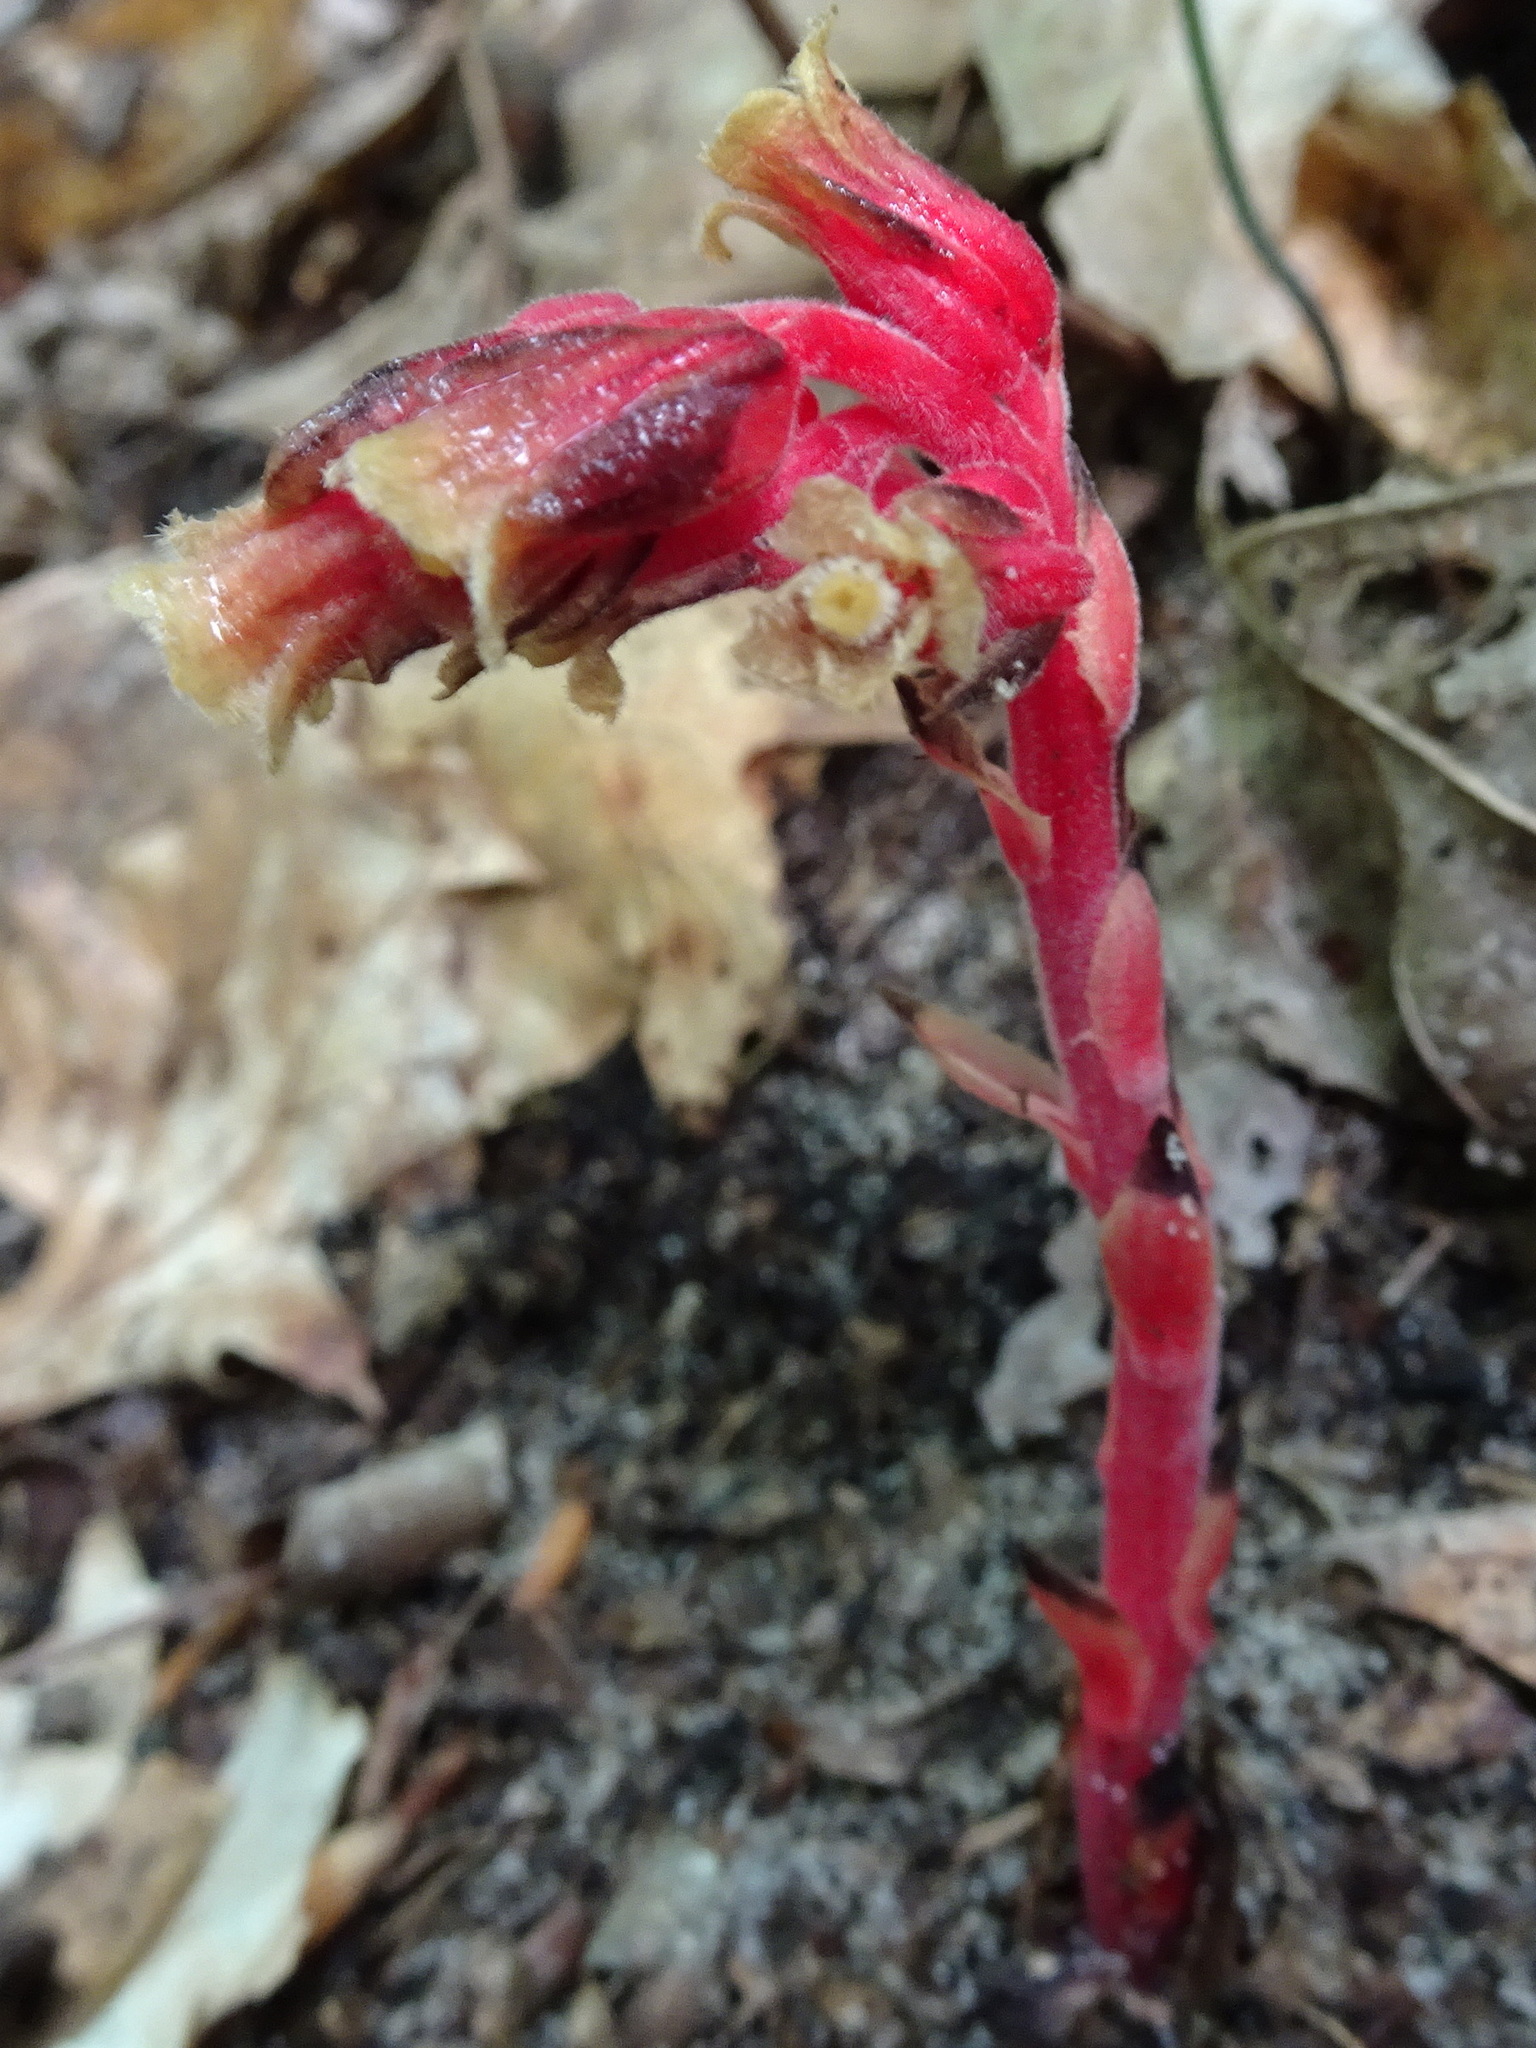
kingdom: Plantae
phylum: Tracheophyta
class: Magnoliopsida
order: Ericales
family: Ericaceae
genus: Hypopitys
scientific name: Hypopitys monotropa
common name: Yellow bird's-nest
